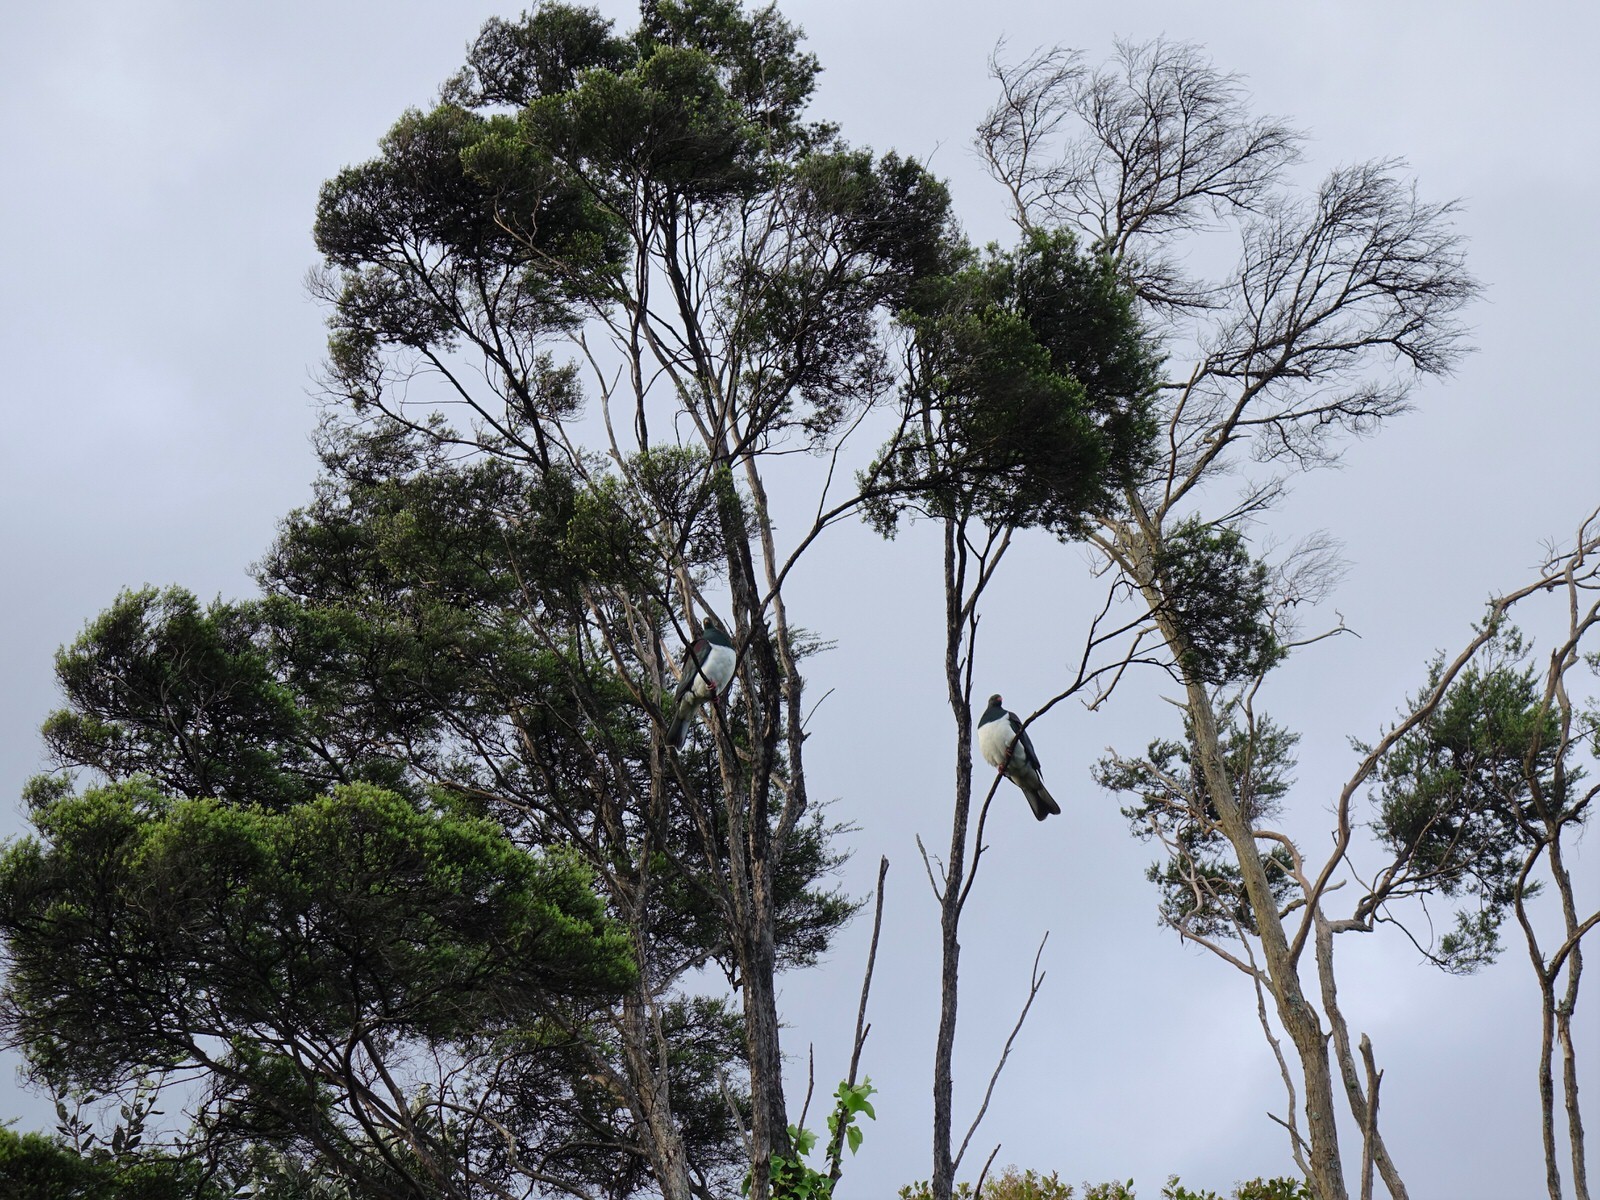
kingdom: Animalia
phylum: Chordata
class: Aves
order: Columbiformes
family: Columbidae
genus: Hemiphaga
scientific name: Hemiphaga novaeseelandiae
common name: New zealand pigeon
